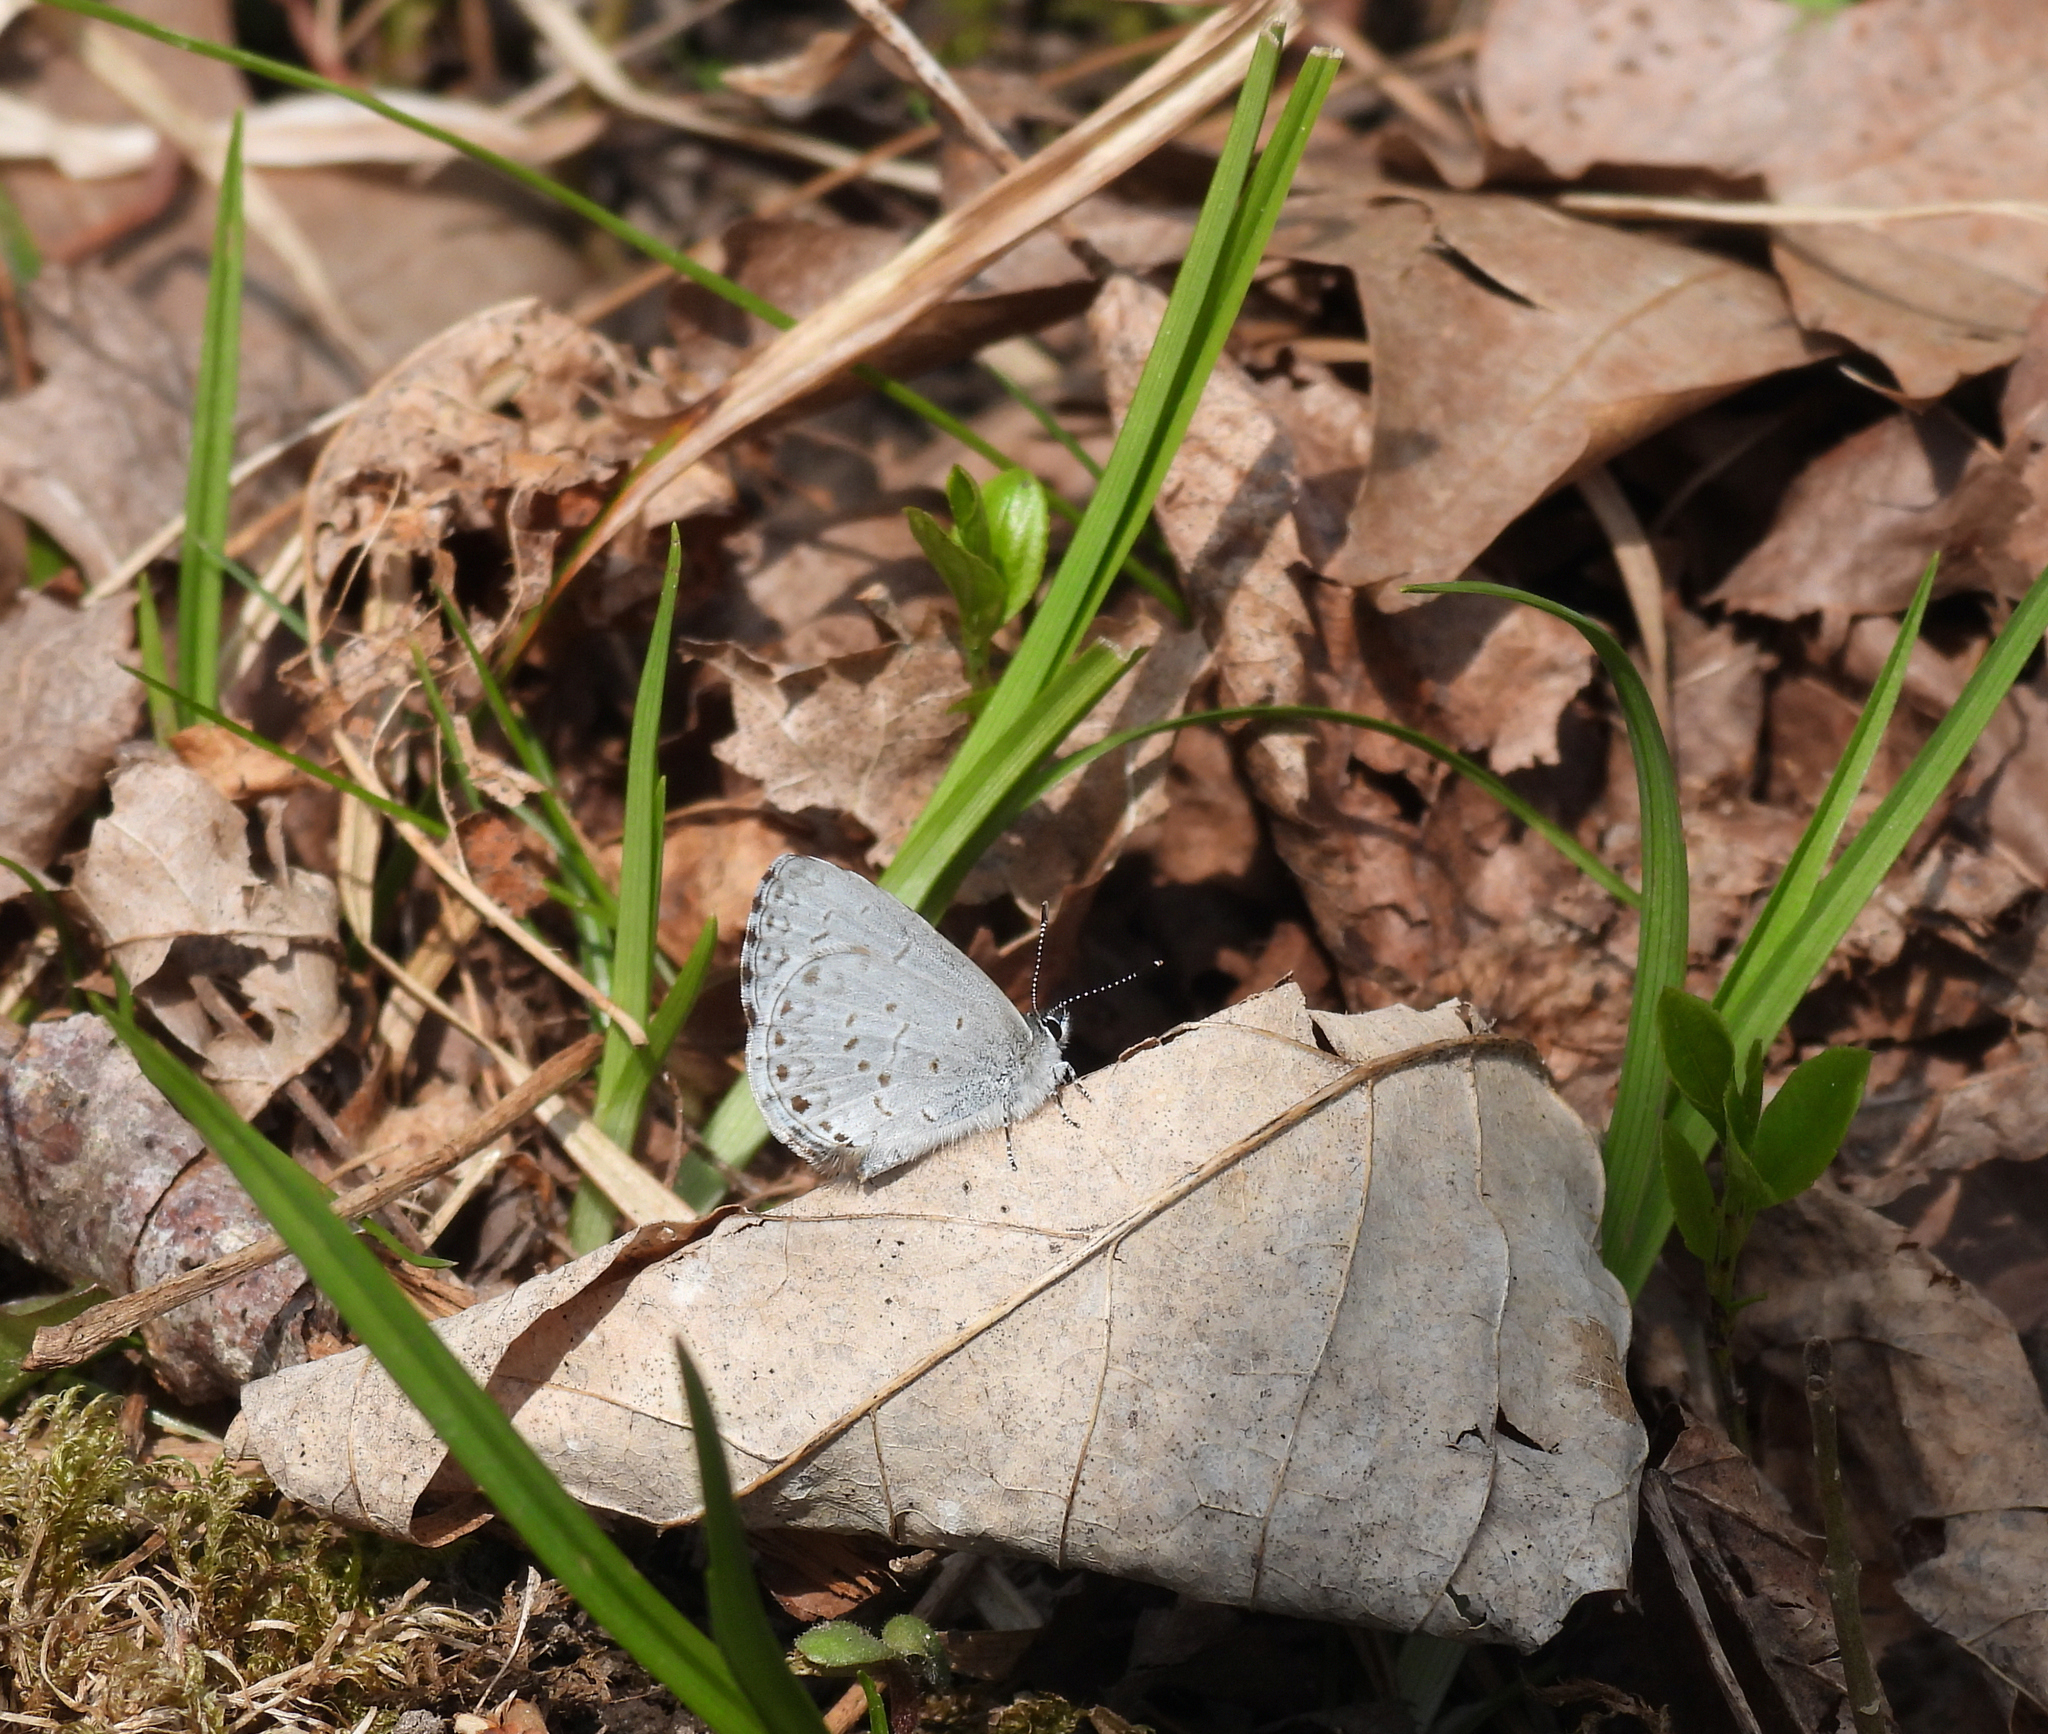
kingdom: Animalia
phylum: Arthropoda
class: Insecta
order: Lepidoptera
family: Lycaenidae
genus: Celastrina
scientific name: Celastrina lucia
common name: Lucia azure
